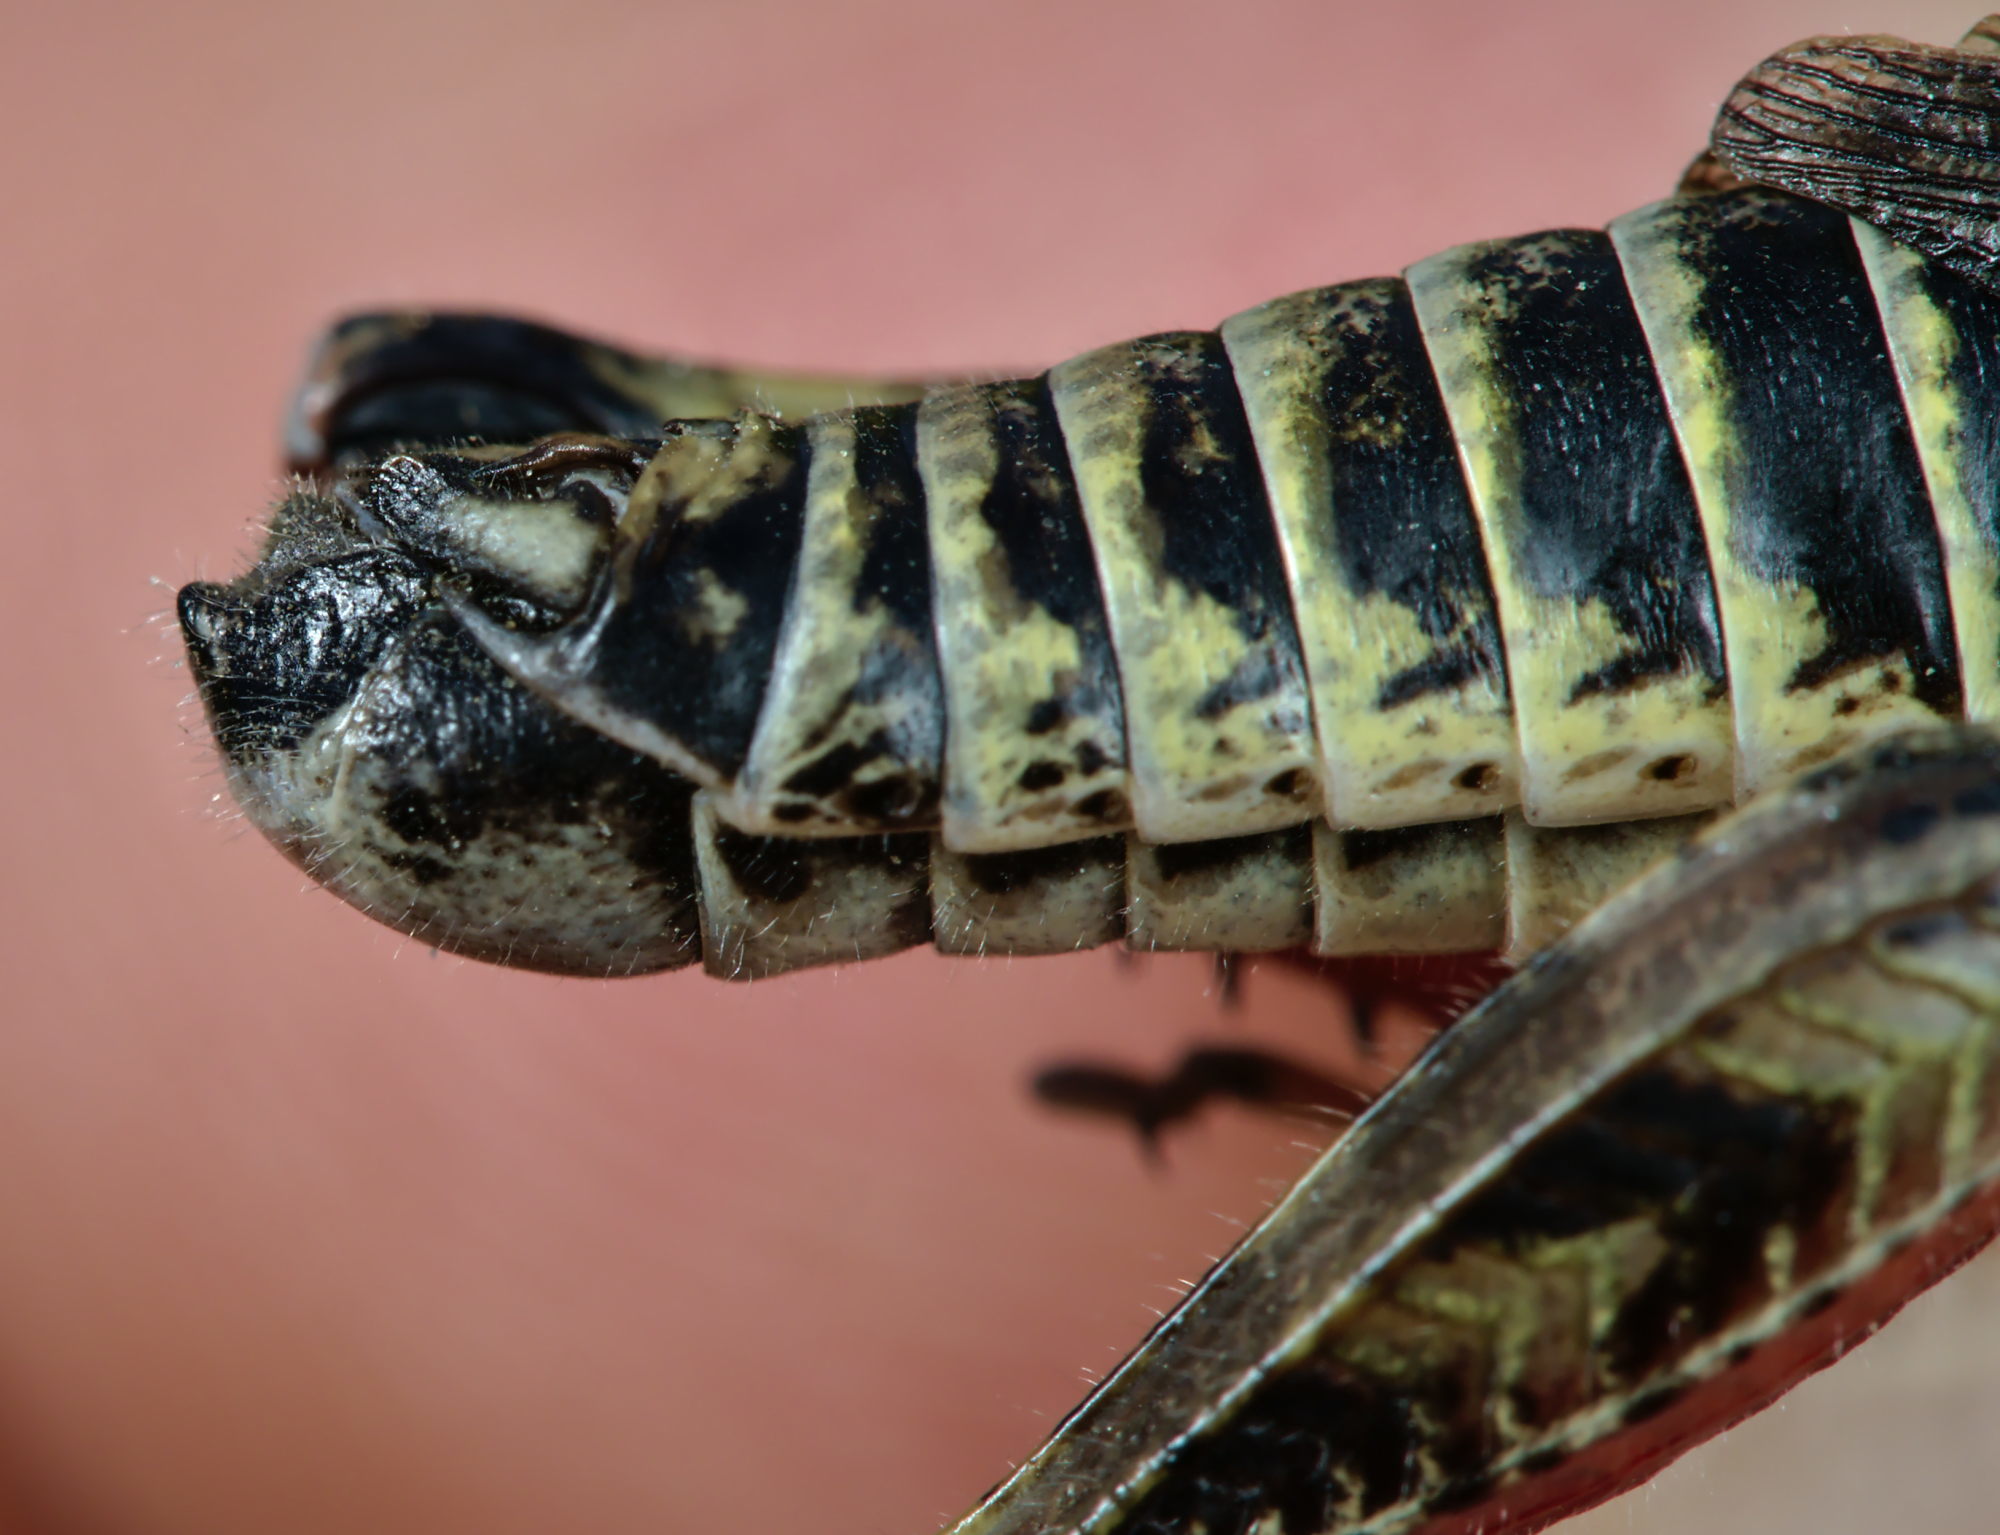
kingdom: Animalia
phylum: Arthropoda
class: Insecta
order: Orthoptera
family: Acrididae
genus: Bohemanella
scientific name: Bohemanella frigida
